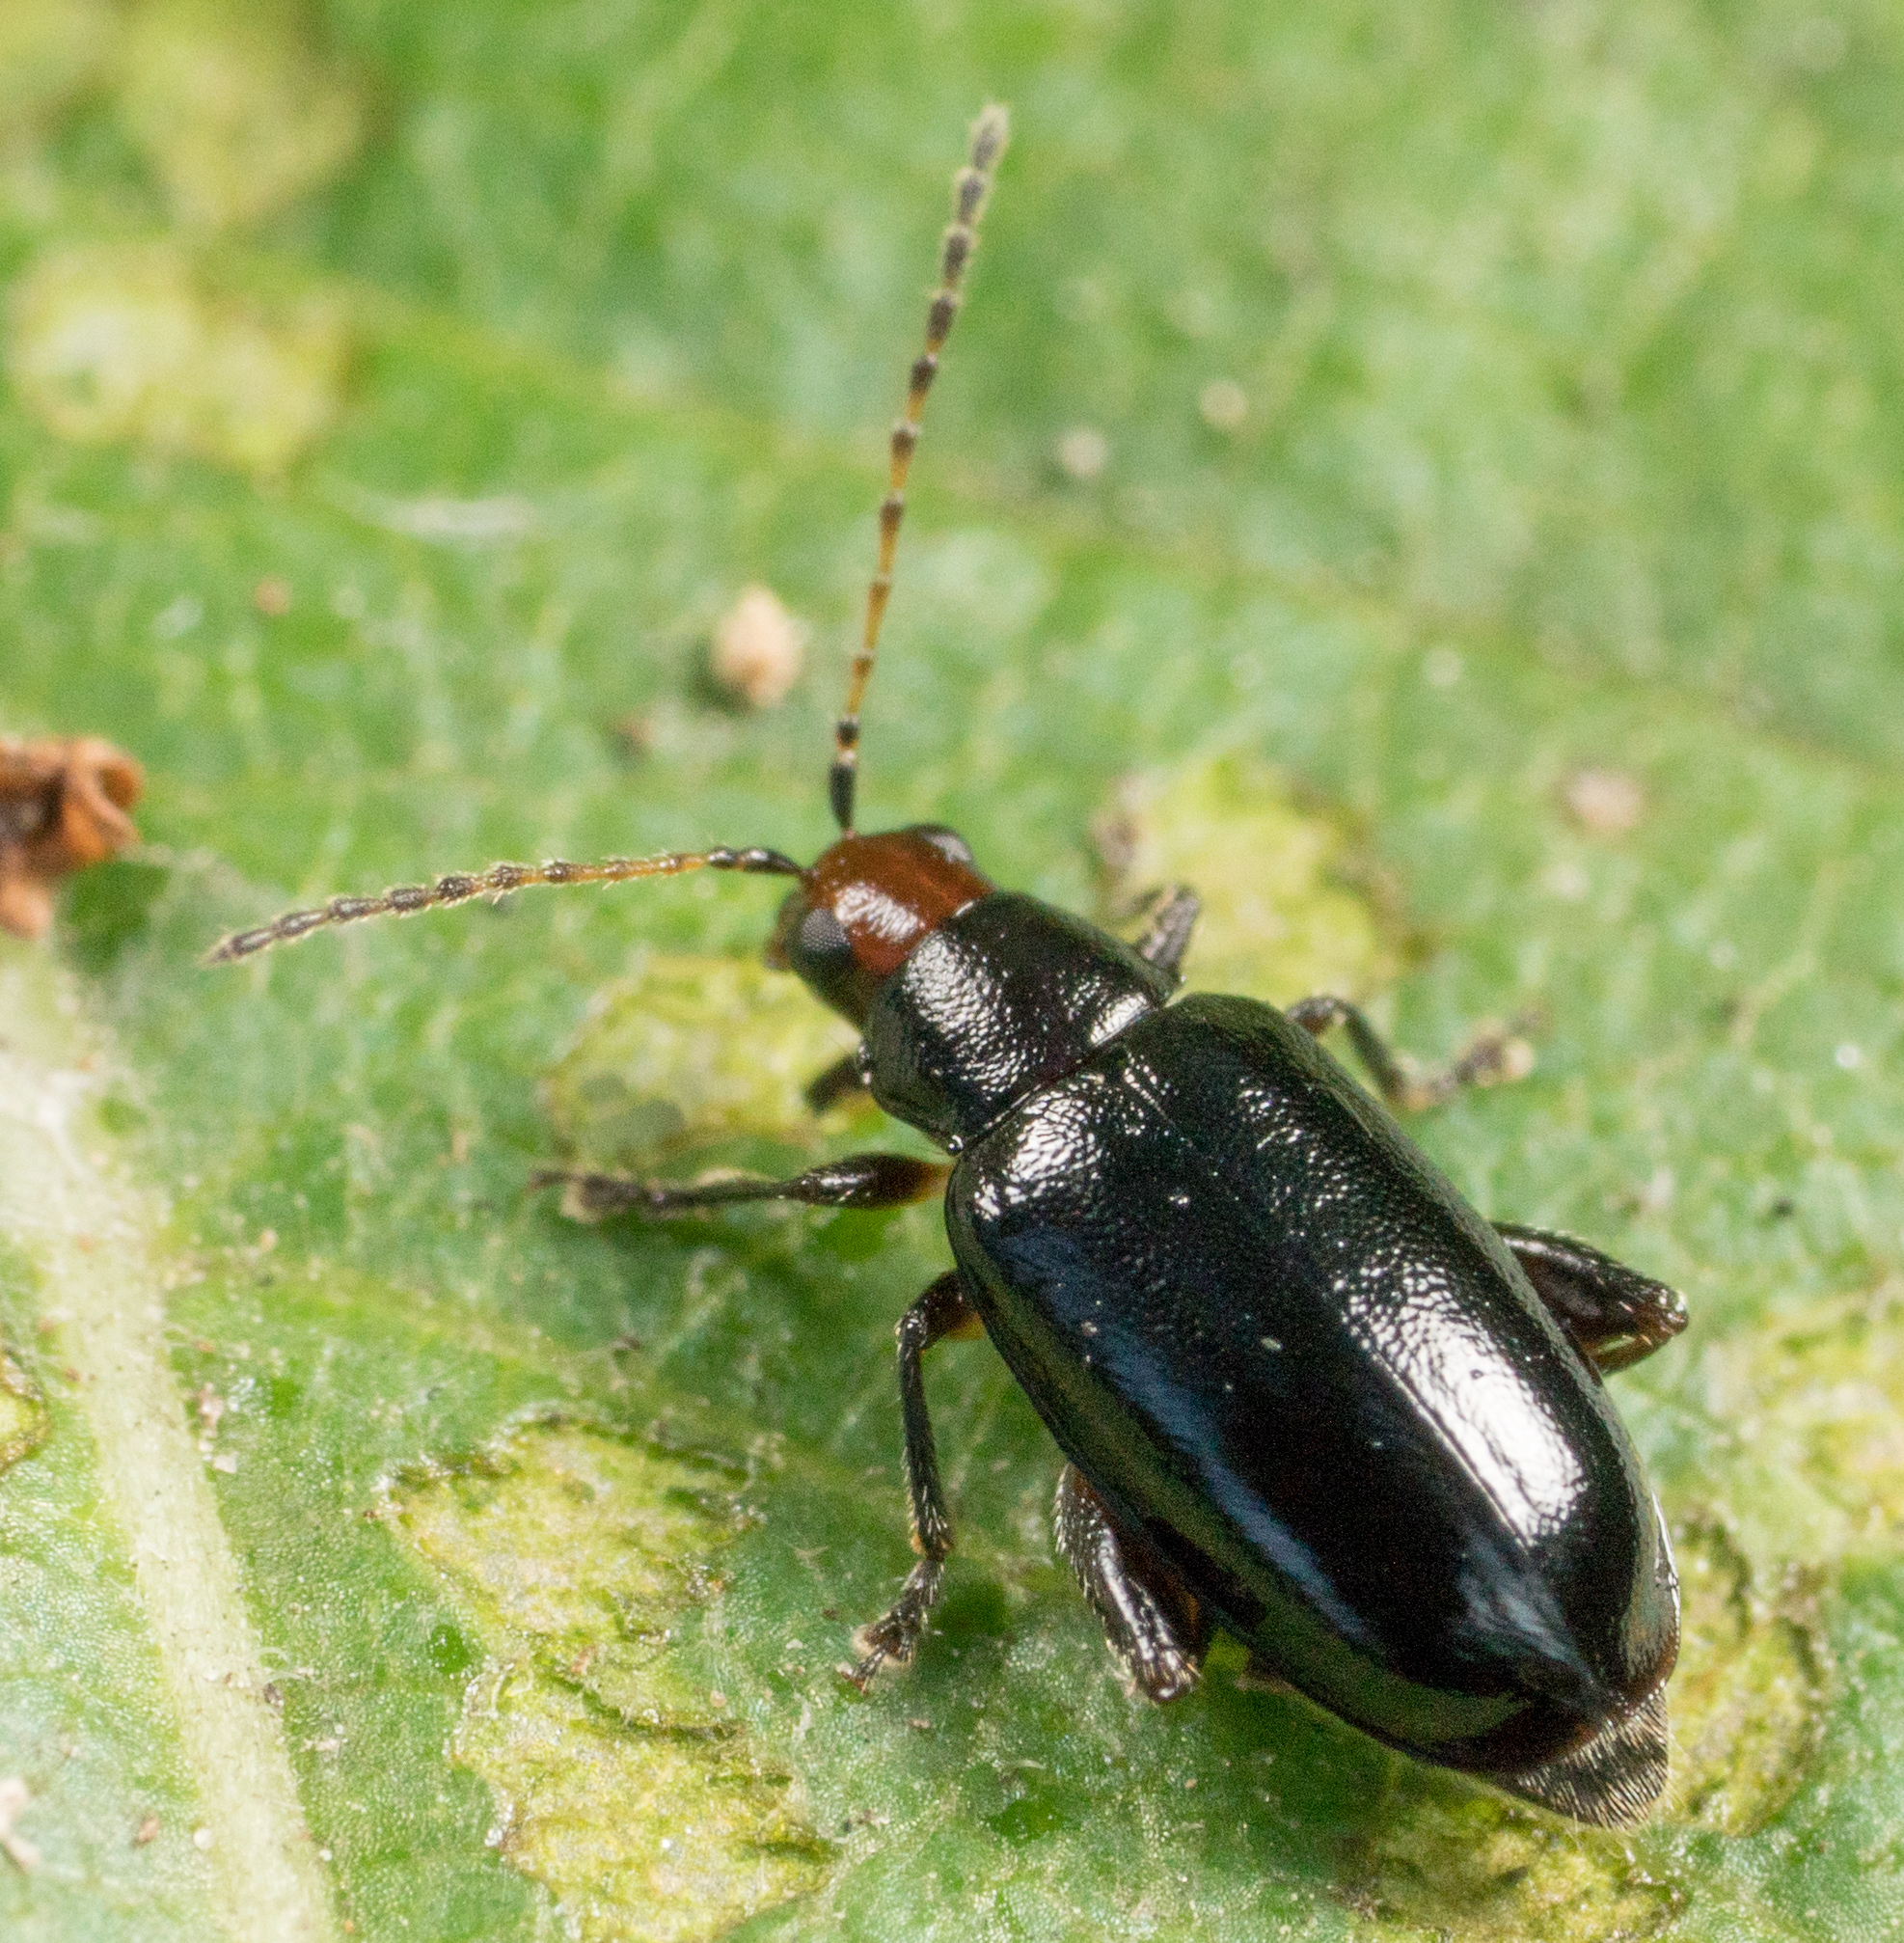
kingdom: Animalia
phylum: Arthropoda
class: Insecta
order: Coleoptera
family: Chrysomelidae
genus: Systena
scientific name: Systena frontalis
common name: Red-headed flea beetle
